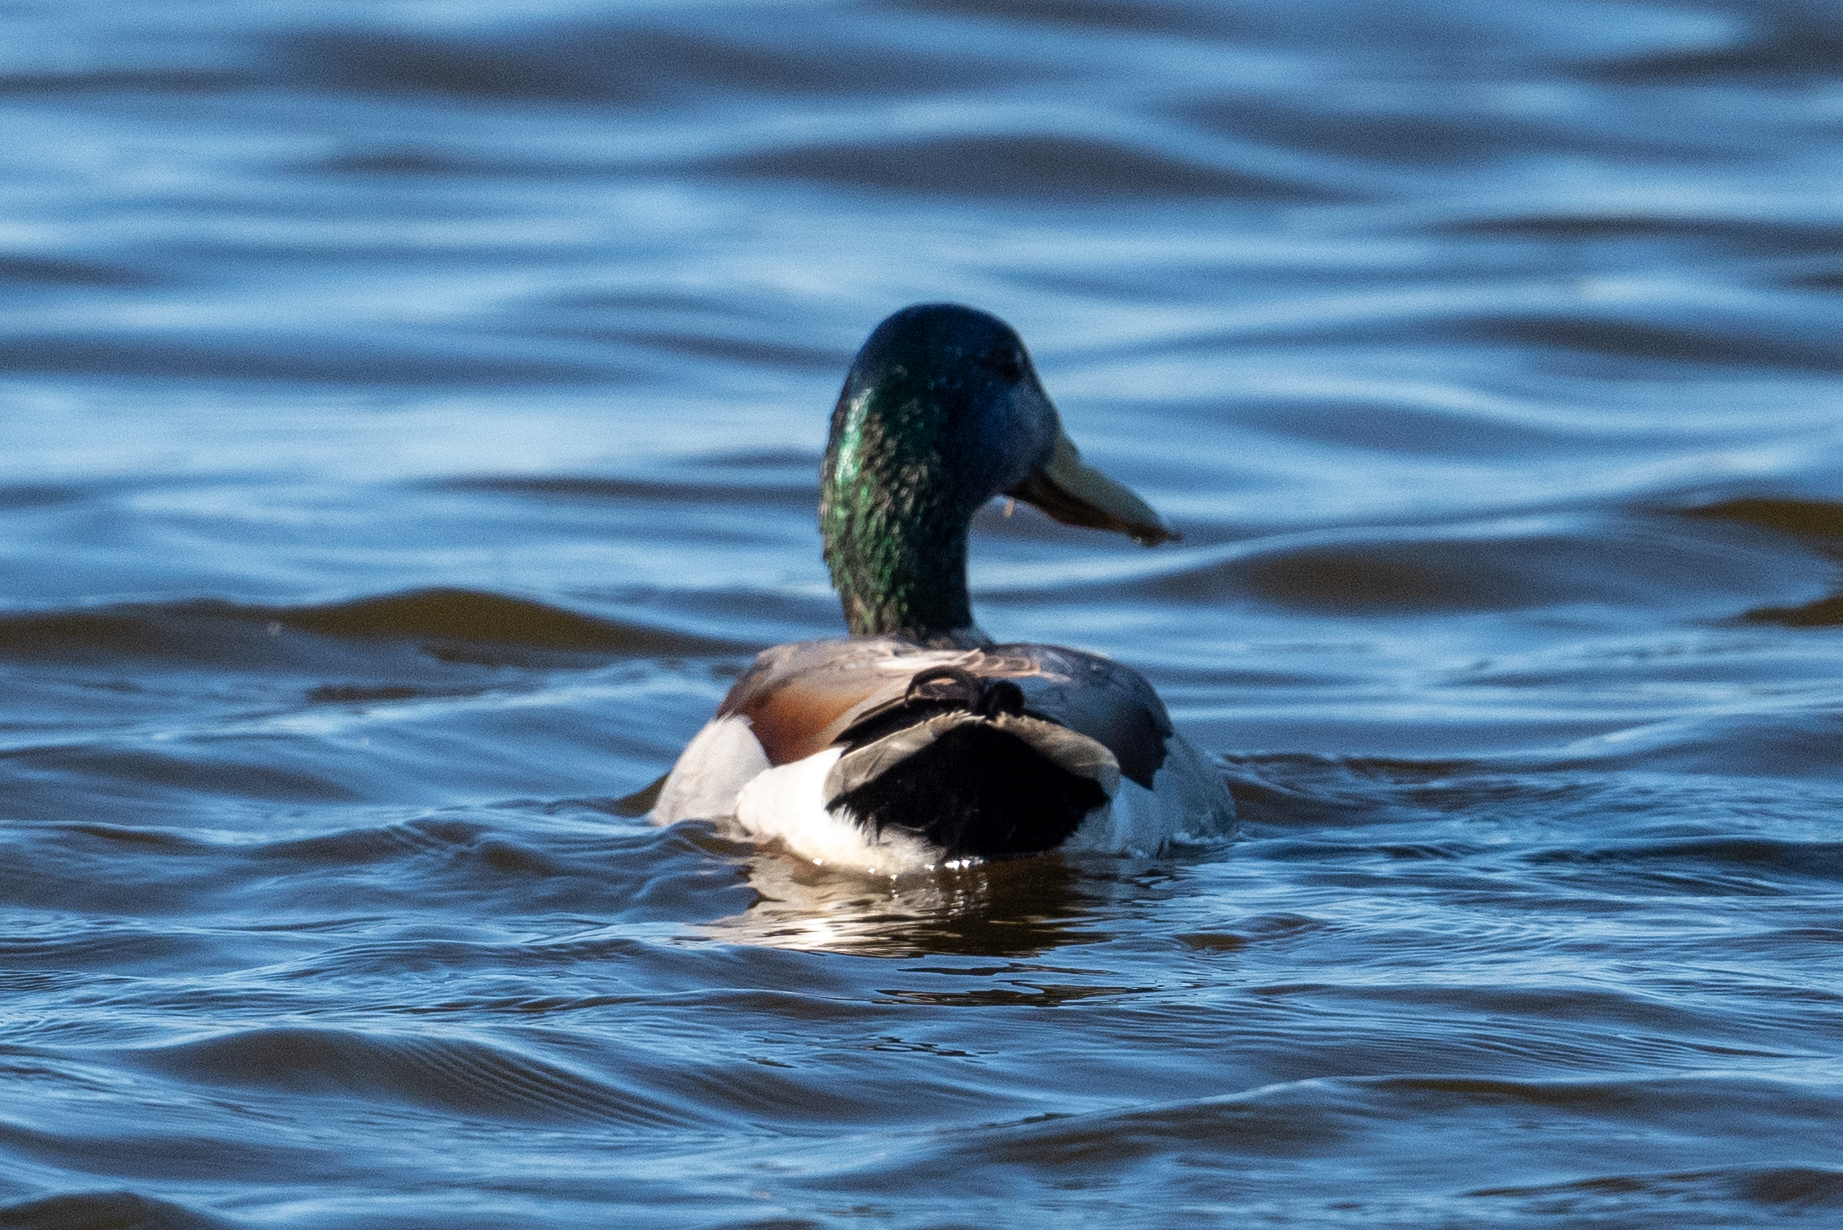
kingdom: Animalia
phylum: Chordata
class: Aves
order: Anseriformes
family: Anatidae
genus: Anas
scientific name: Anas platyrhynchos
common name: Mallard
